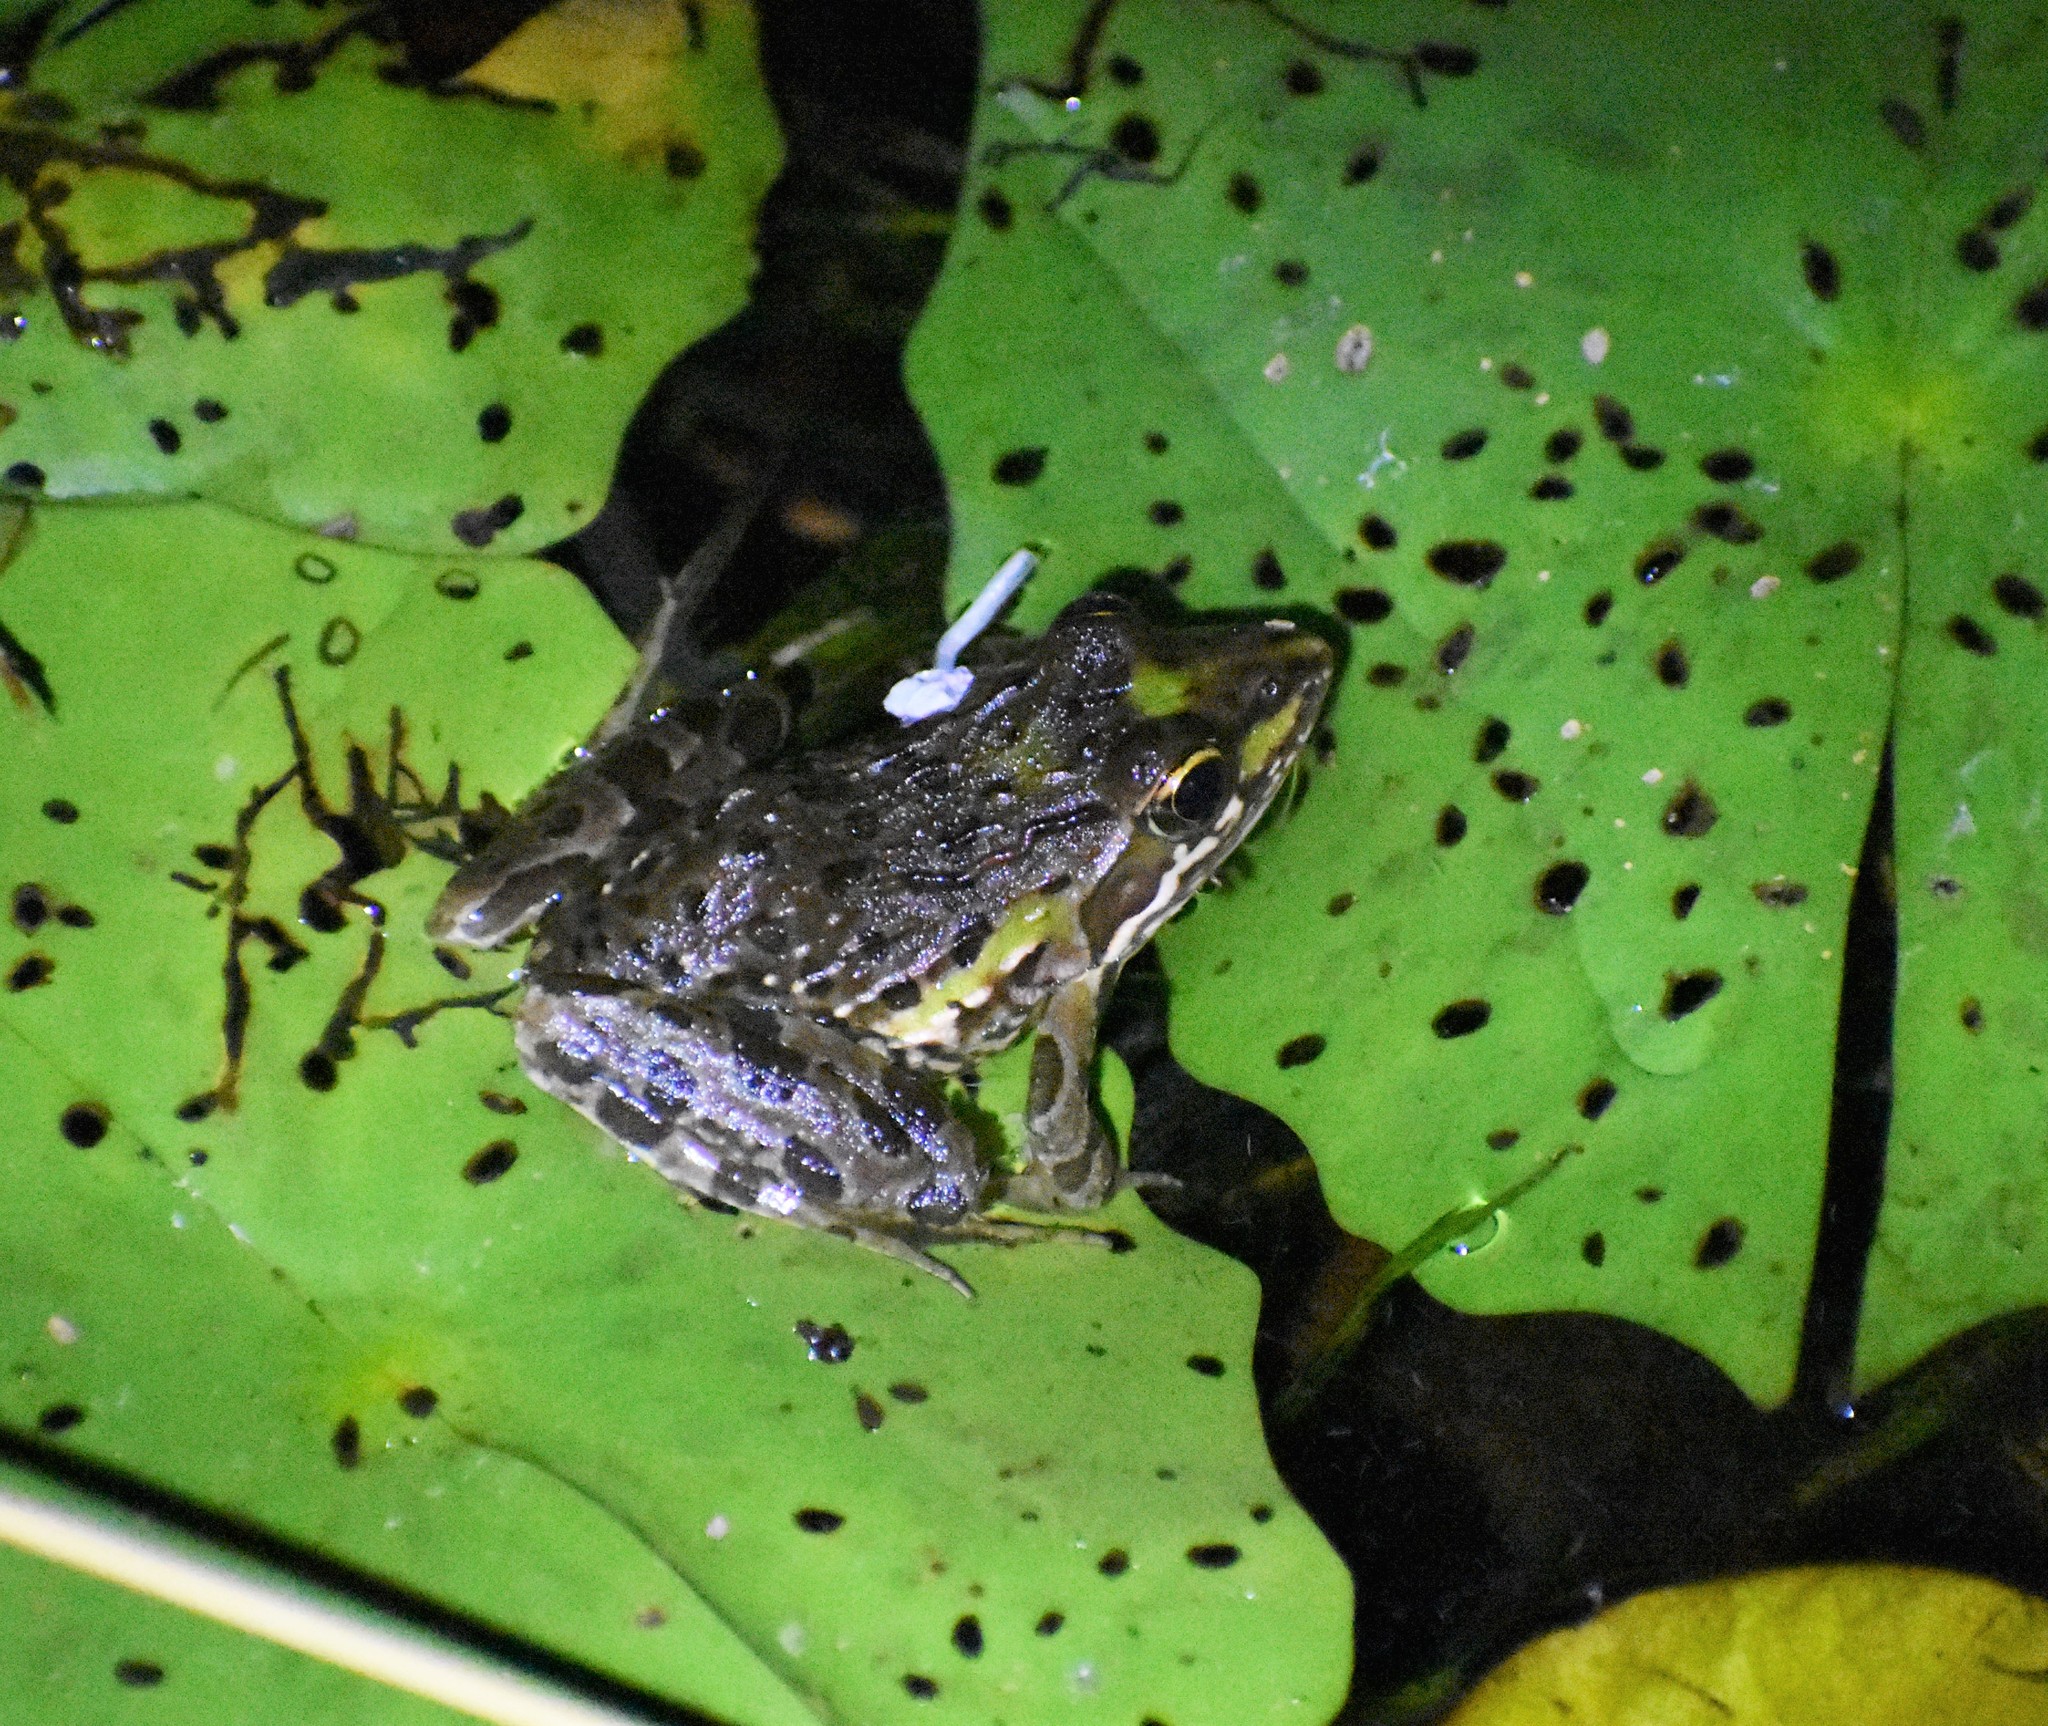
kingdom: Animalia
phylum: Chordata
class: Amphibia
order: Anura
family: Pyxicephalidae
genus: Amietia
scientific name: Amietia delalandii
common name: Delalande's river frog
